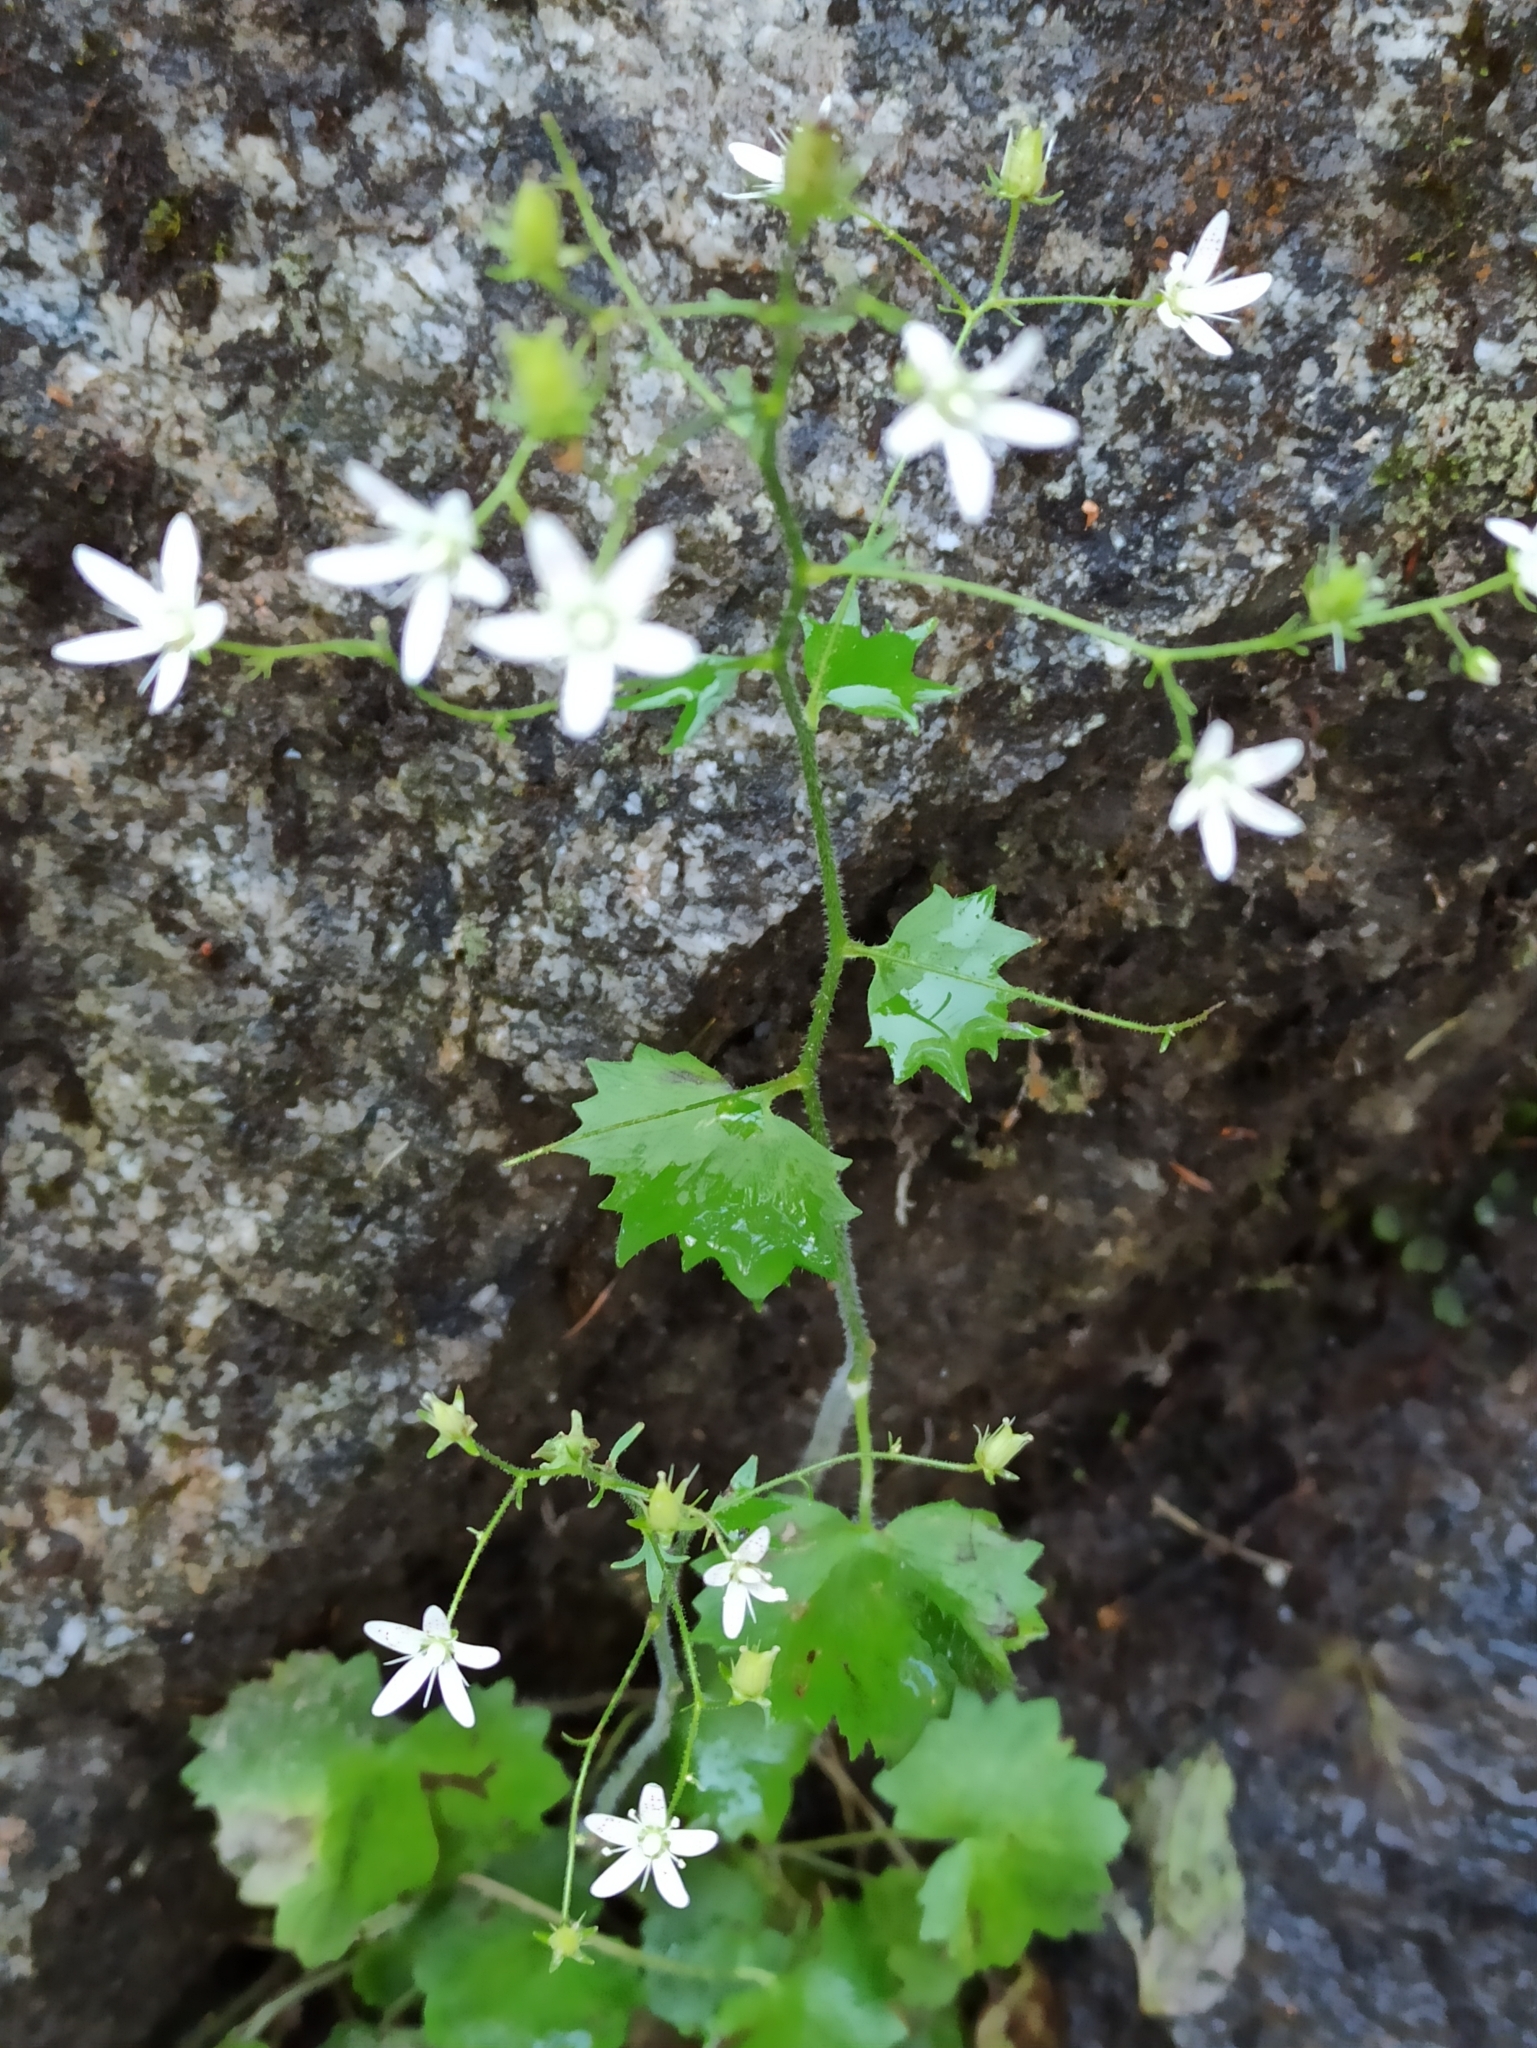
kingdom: Plantae
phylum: Tracheophyta
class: Magnoliopsida
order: Saxifragales
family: Saxifragaceae
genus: Saxifraga
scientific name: Saxifraga rotundifolia
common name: Round-leaved saxifrage
